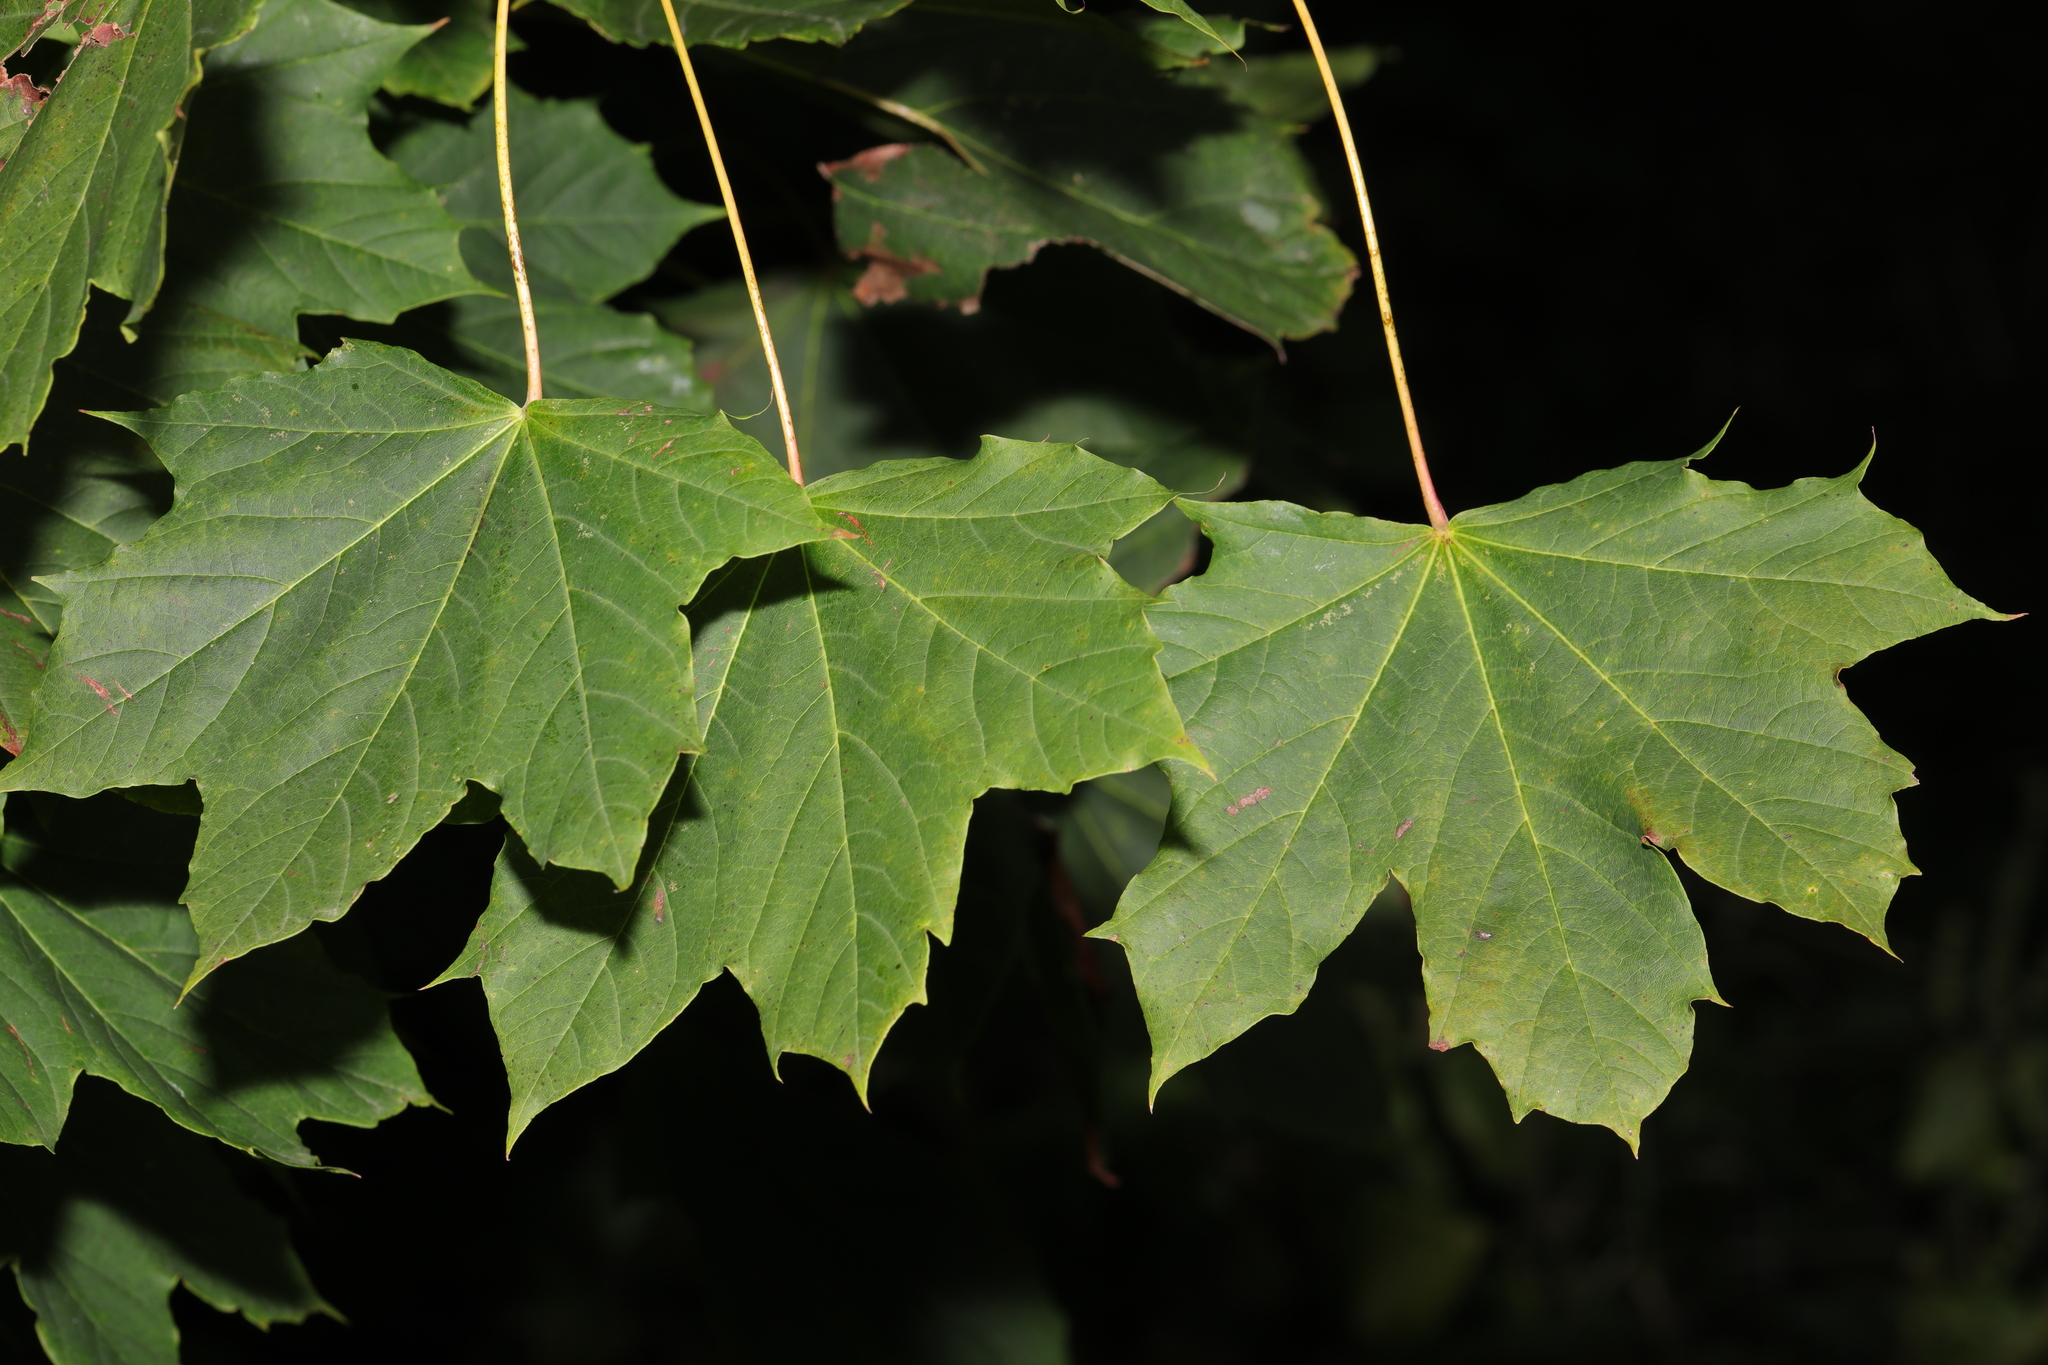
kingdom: Plantae
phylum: Tracheophyta
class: Magnoliopsida
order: Sapindales
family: Sapindaceae
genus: Acer
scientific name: Acer platanoides
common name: Norway maple
